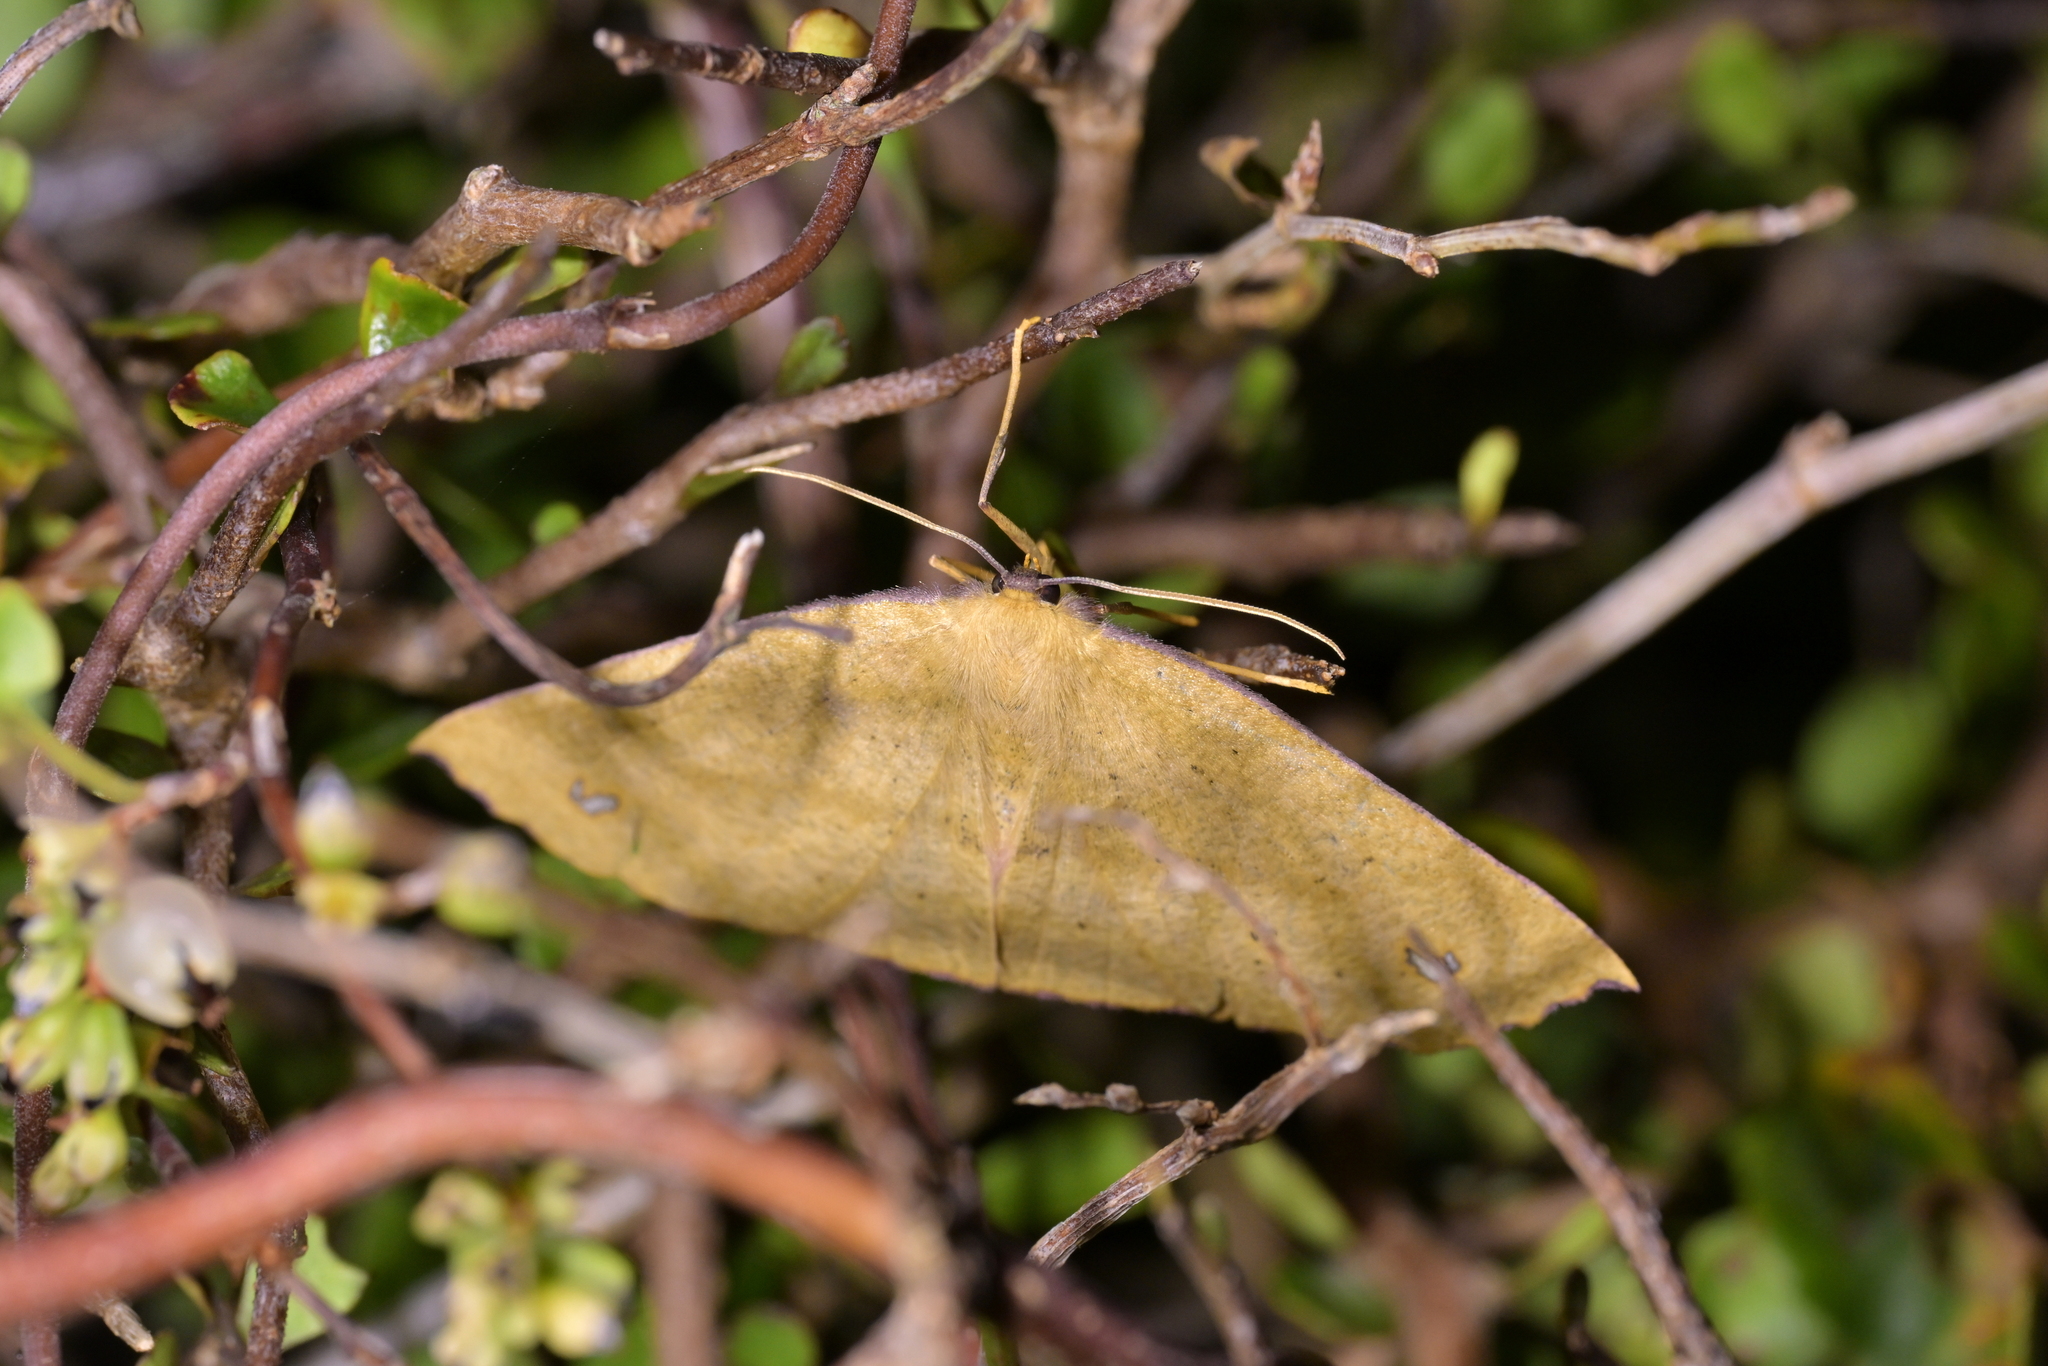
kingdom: Animalia
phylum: Arthropoda
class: Insecta
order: Lepidoptera
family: Geometridae
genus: Xyridacma
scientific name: Xyridacma alectoraria
